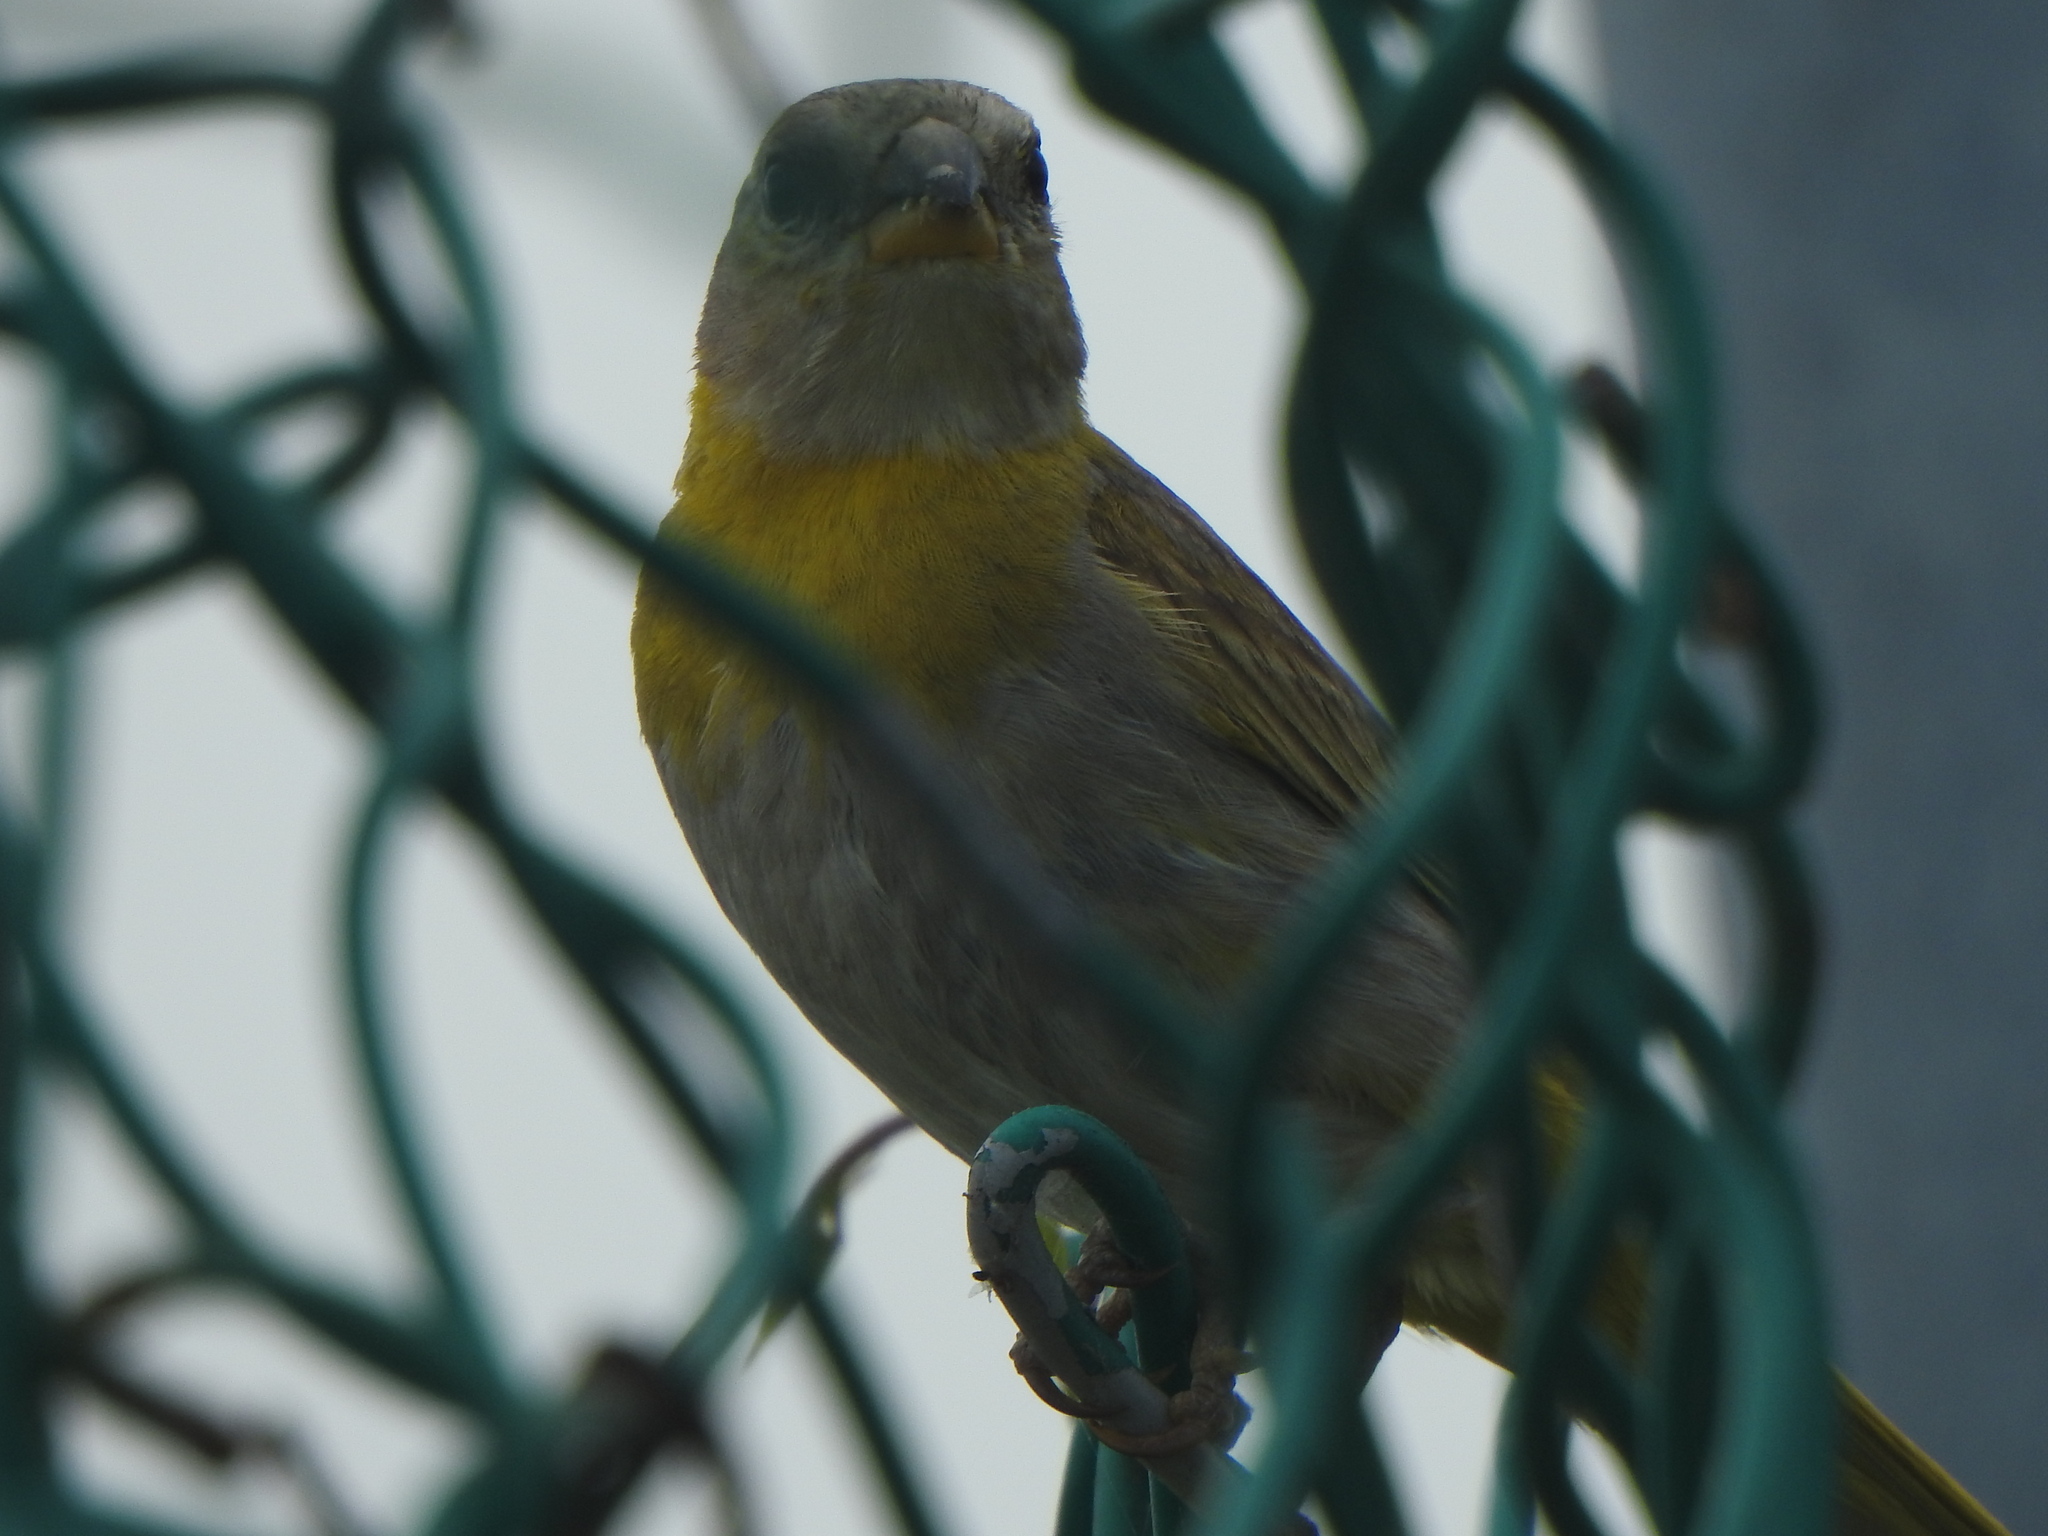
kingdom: Animalia
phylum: Chordata
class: Aves
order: Passeriformes
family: Thraupidae
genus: Sicalis
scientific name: Sicalis flaveola
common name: Saffron finch
